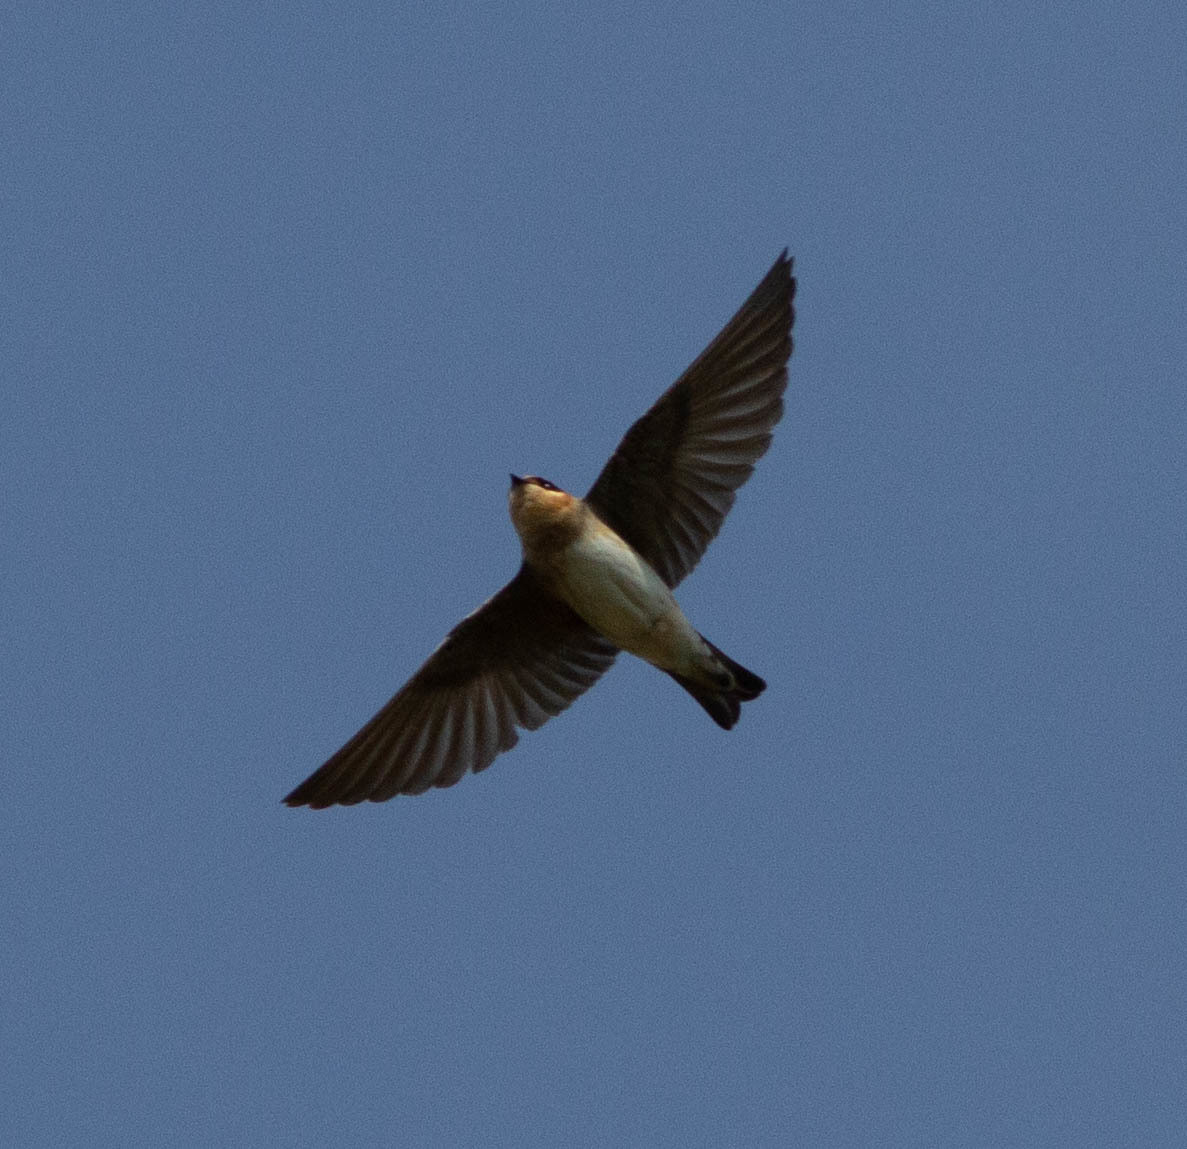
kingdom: Animalia
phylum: Chordata
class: Aves
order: Passeriformes
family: Hirundinidae
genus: Petrochelidon
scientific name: Petrochelidon fulva
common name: Cave swallow
